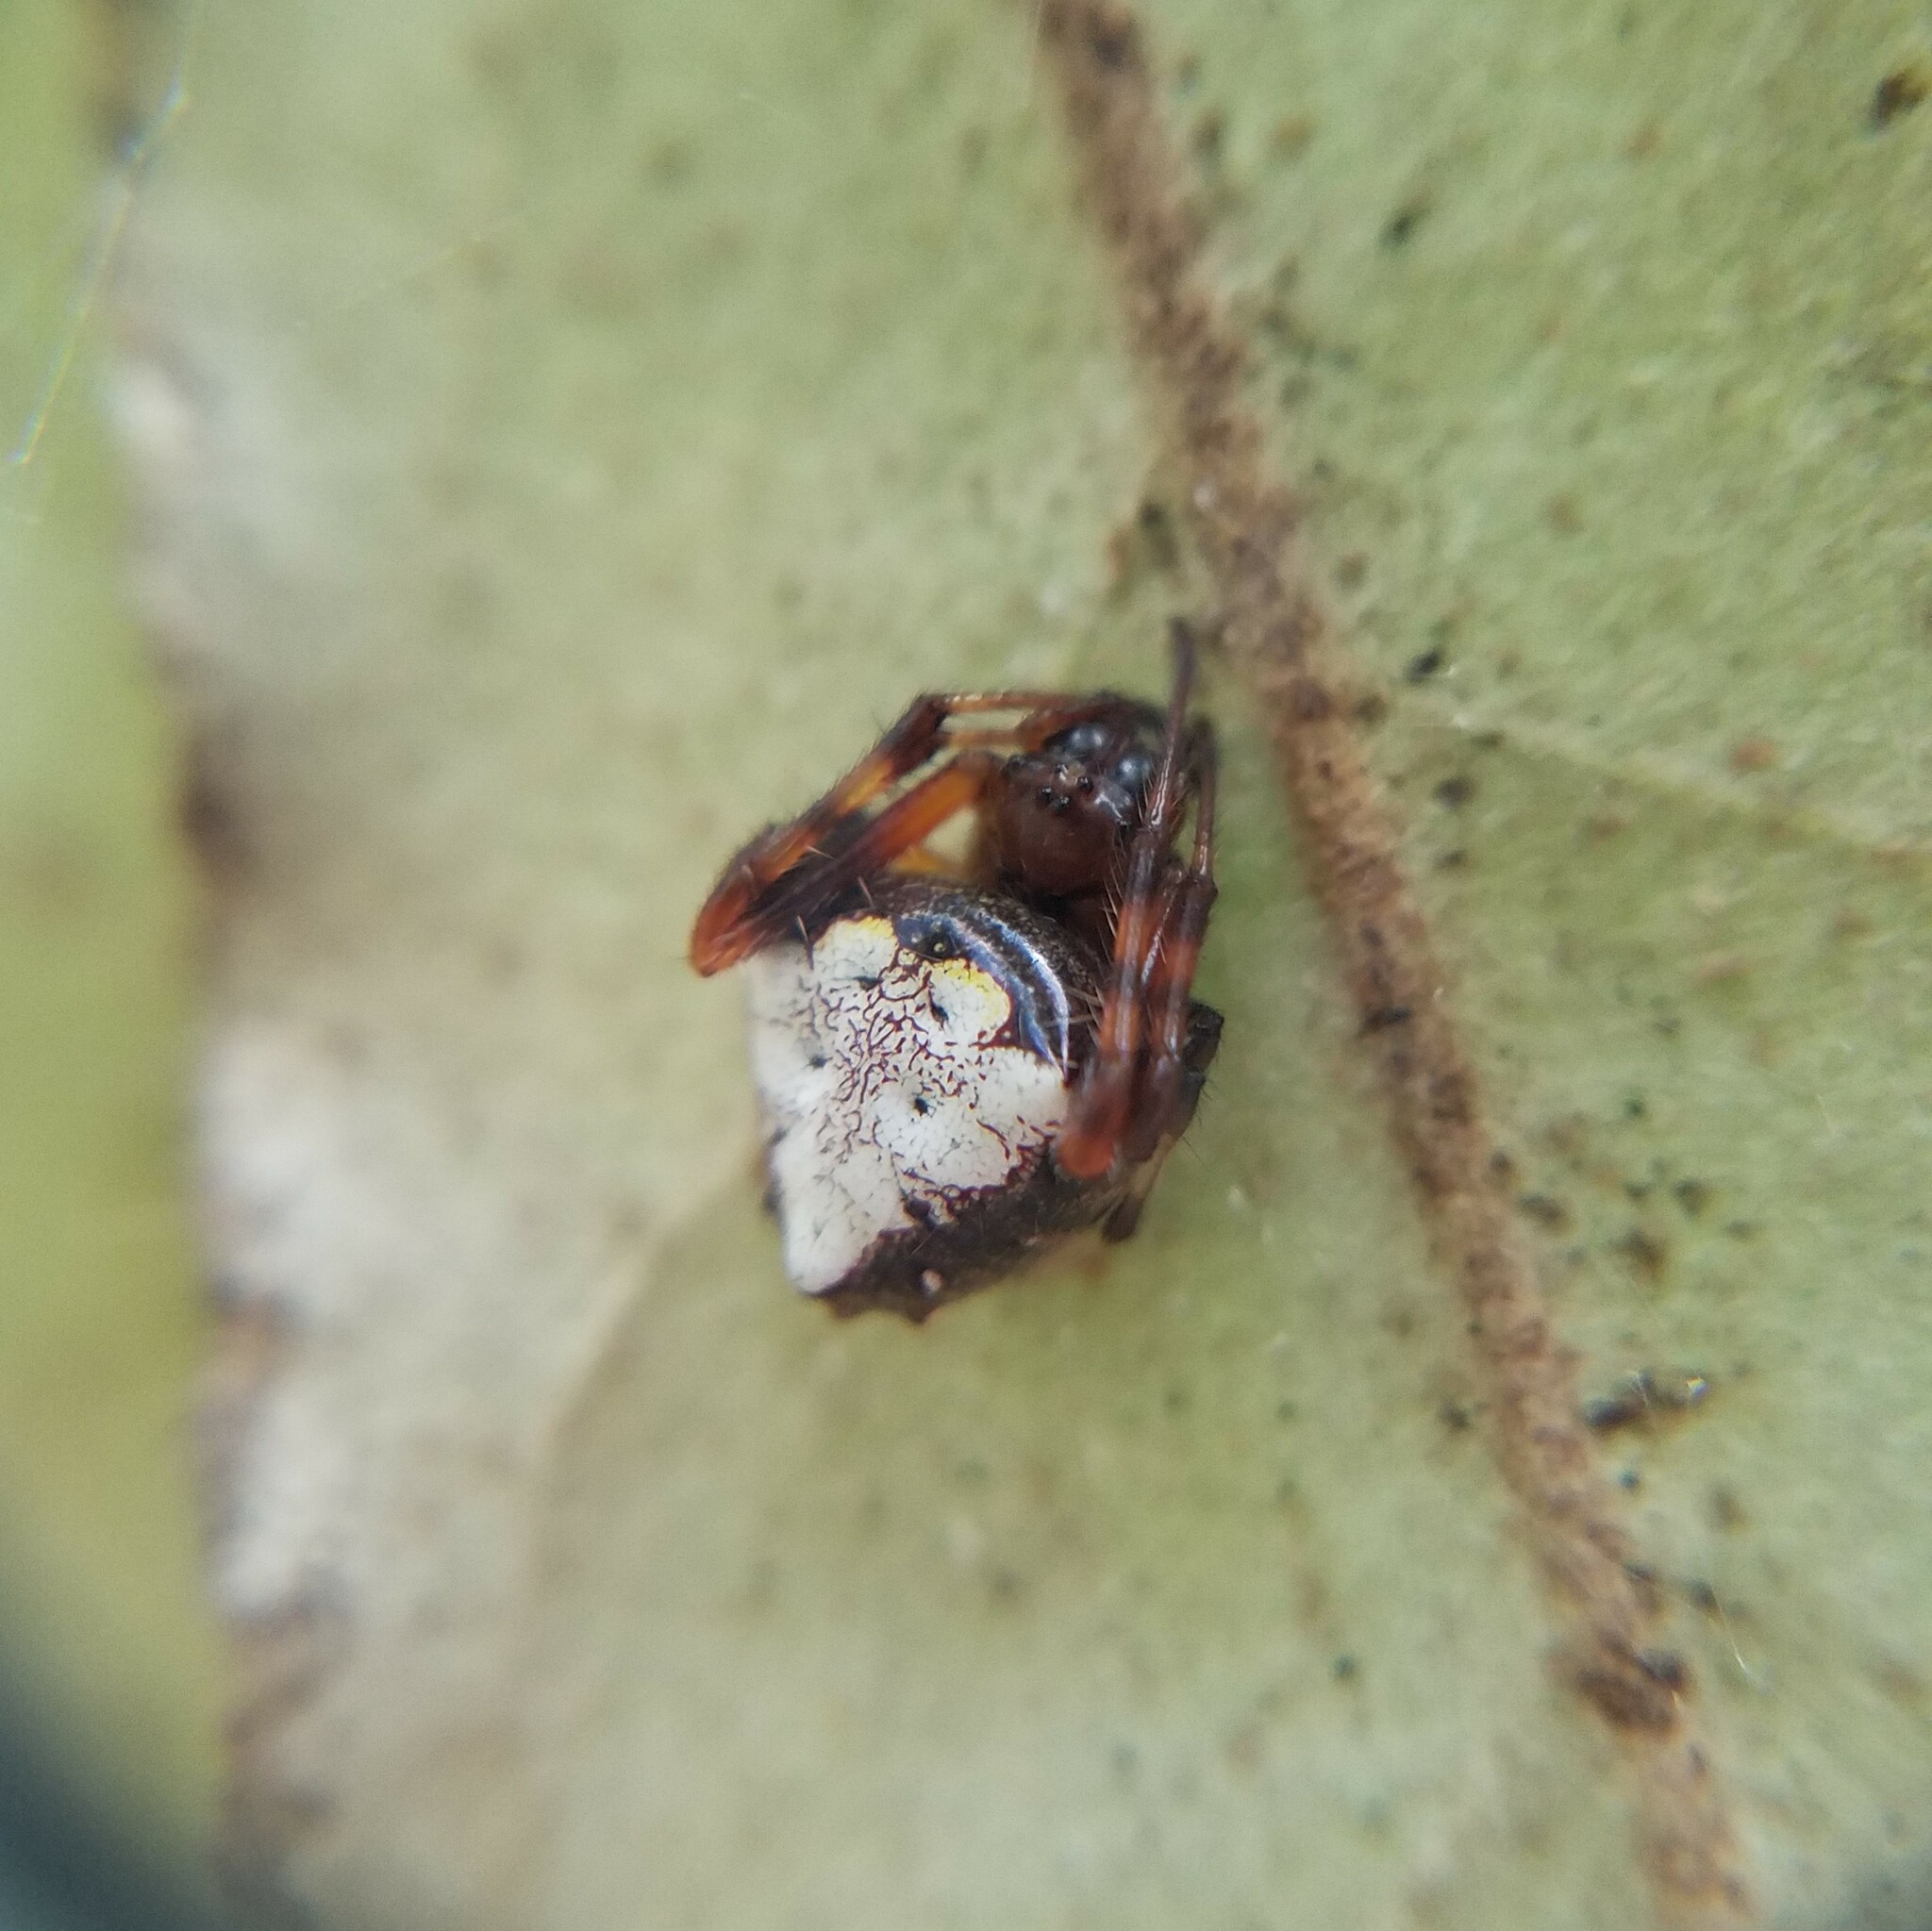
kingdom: Animalia
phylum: Arthropoda
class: Arachnida
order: Araneae
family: Araneidae
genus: Verrucosa
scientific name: Verrucosa arenata
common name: Orb weavers
